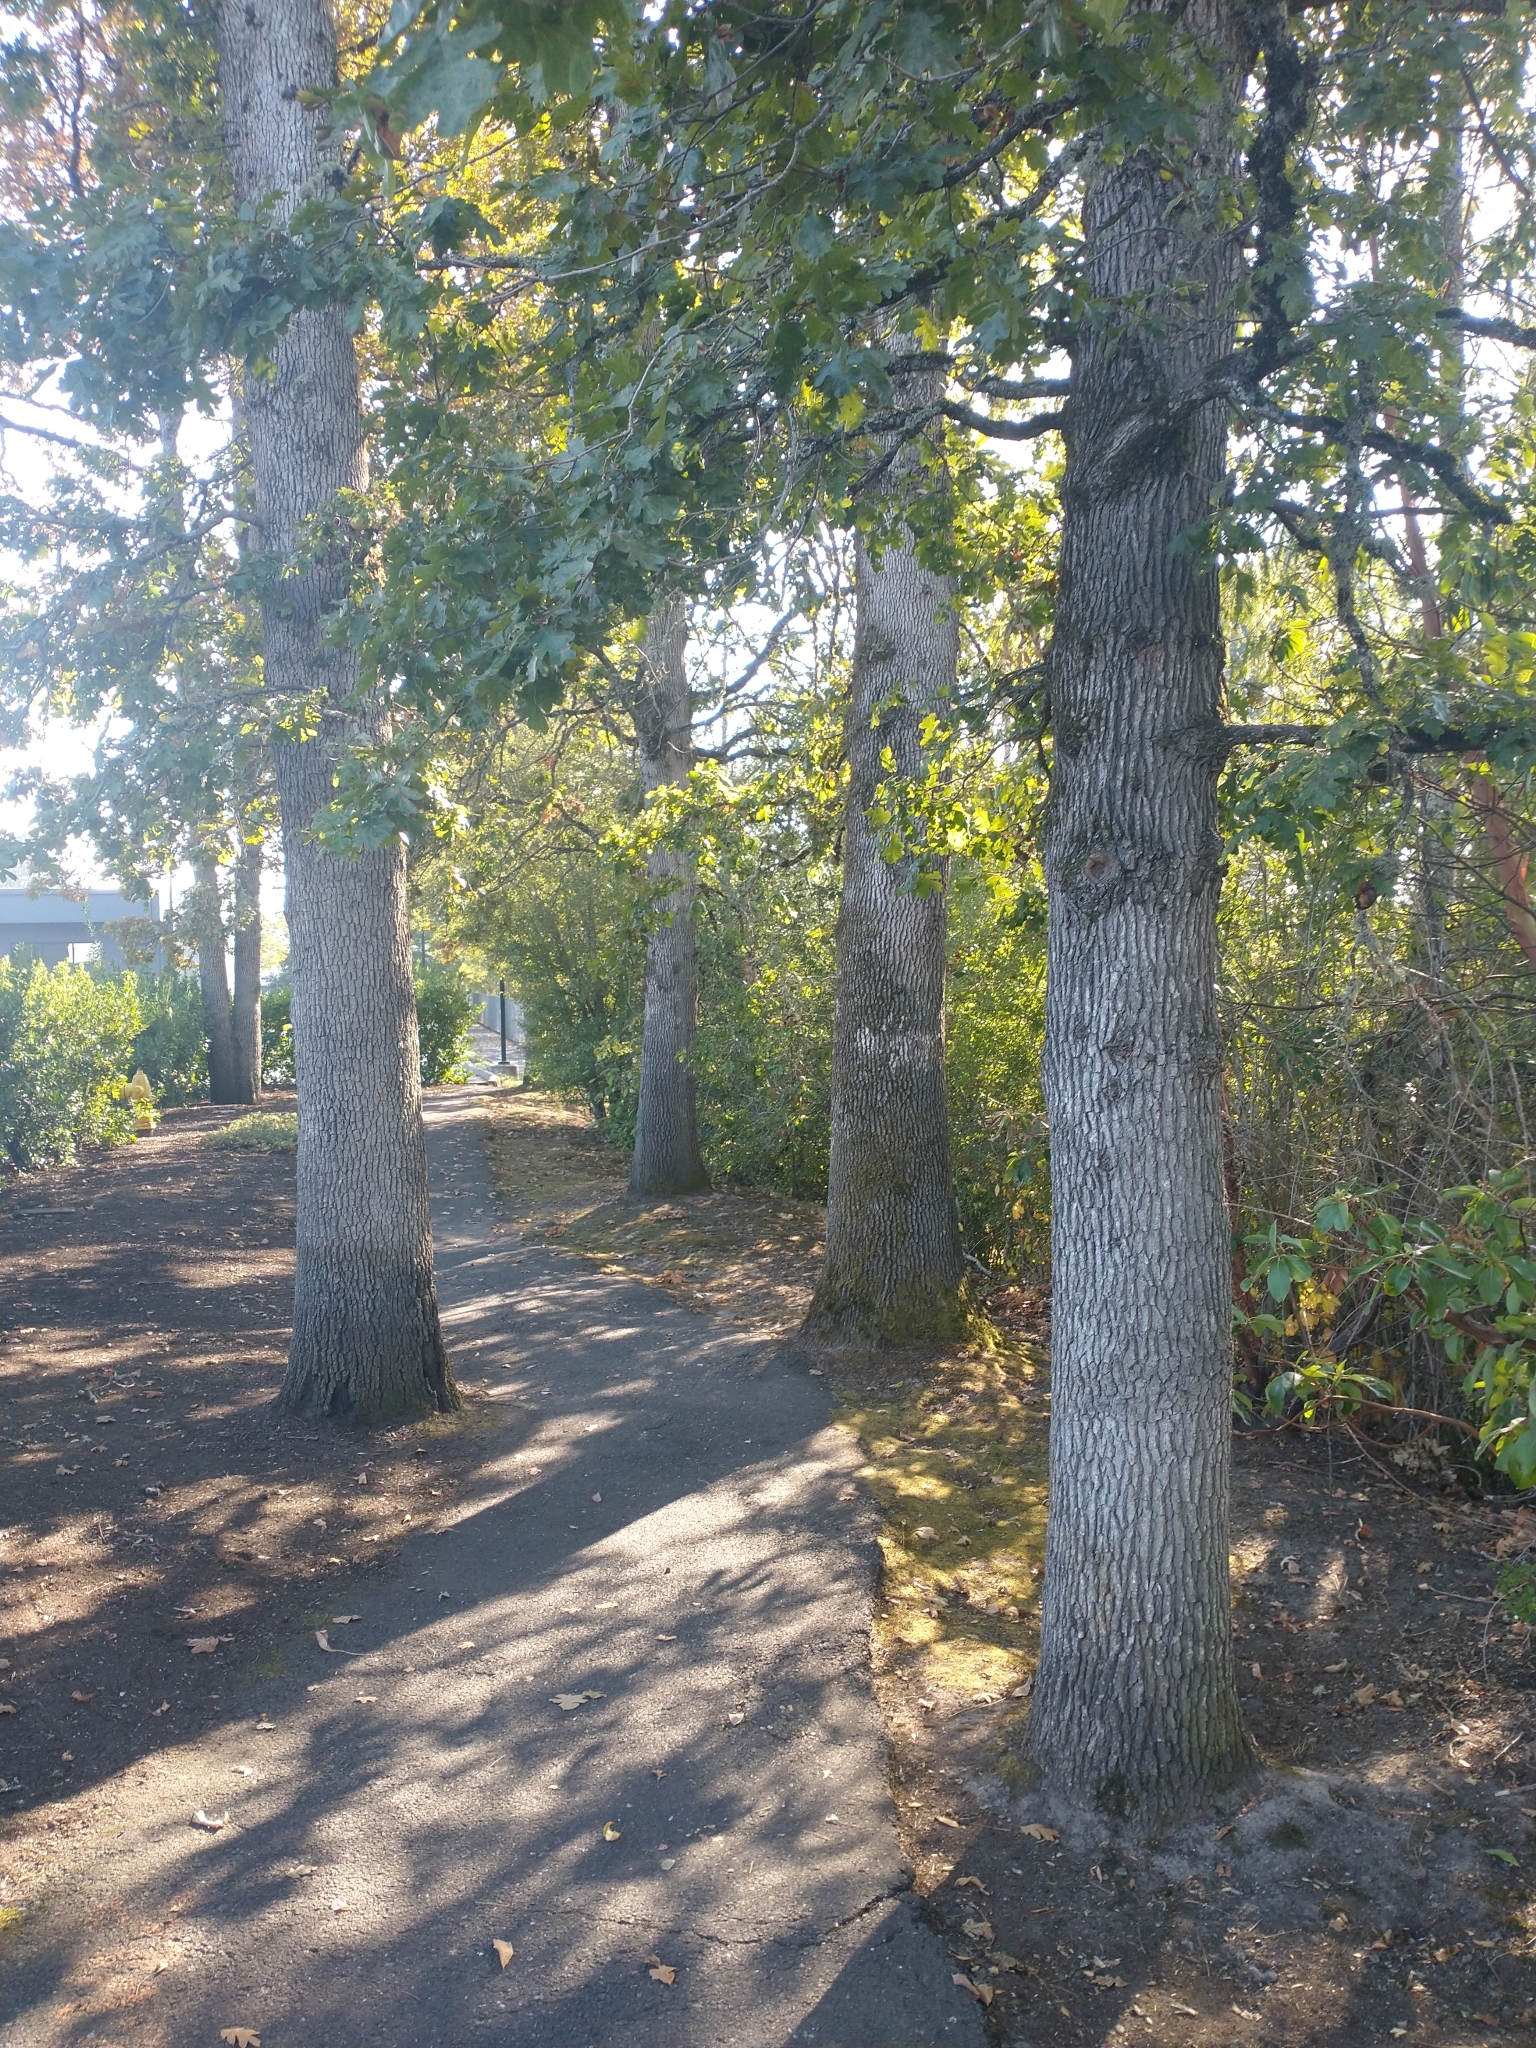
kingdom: Plantae
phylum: Tracheophyta
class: Magnoliopsida
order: Fagales
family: Fagaceae
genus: Quercus
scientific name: Quercus garryana
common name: Garry oak
